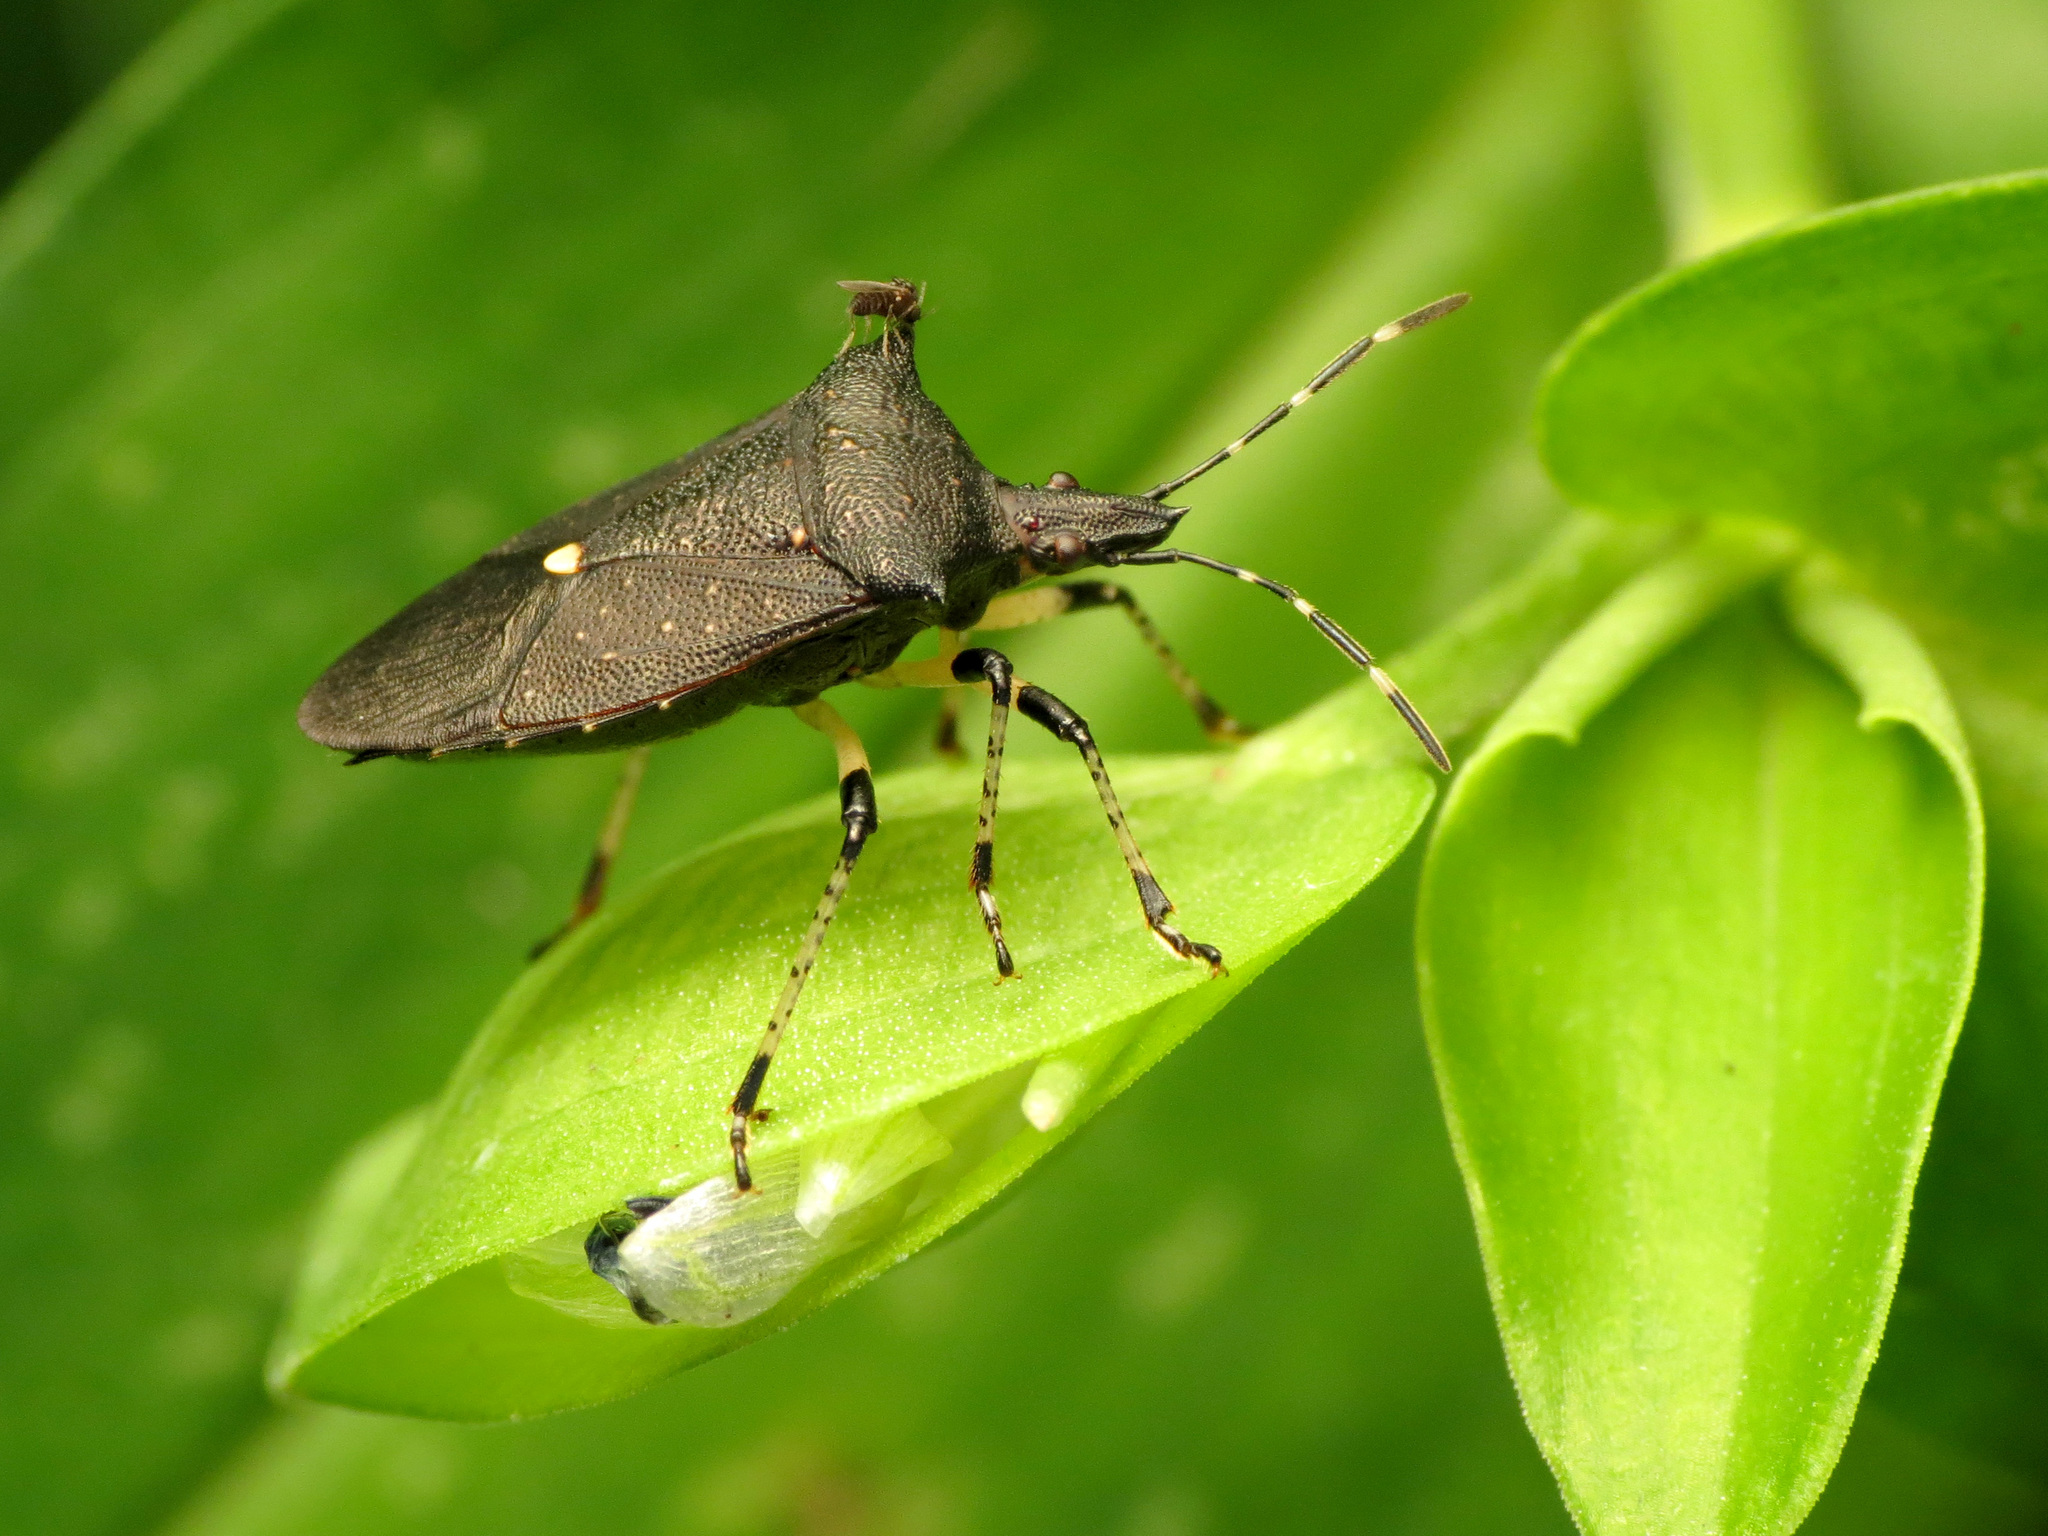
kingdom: Animalia
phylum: Arthropoda
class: Insecta
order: Hemiptera
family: Pentatomidae
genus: Proxys
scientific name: Proxys punctulatus
